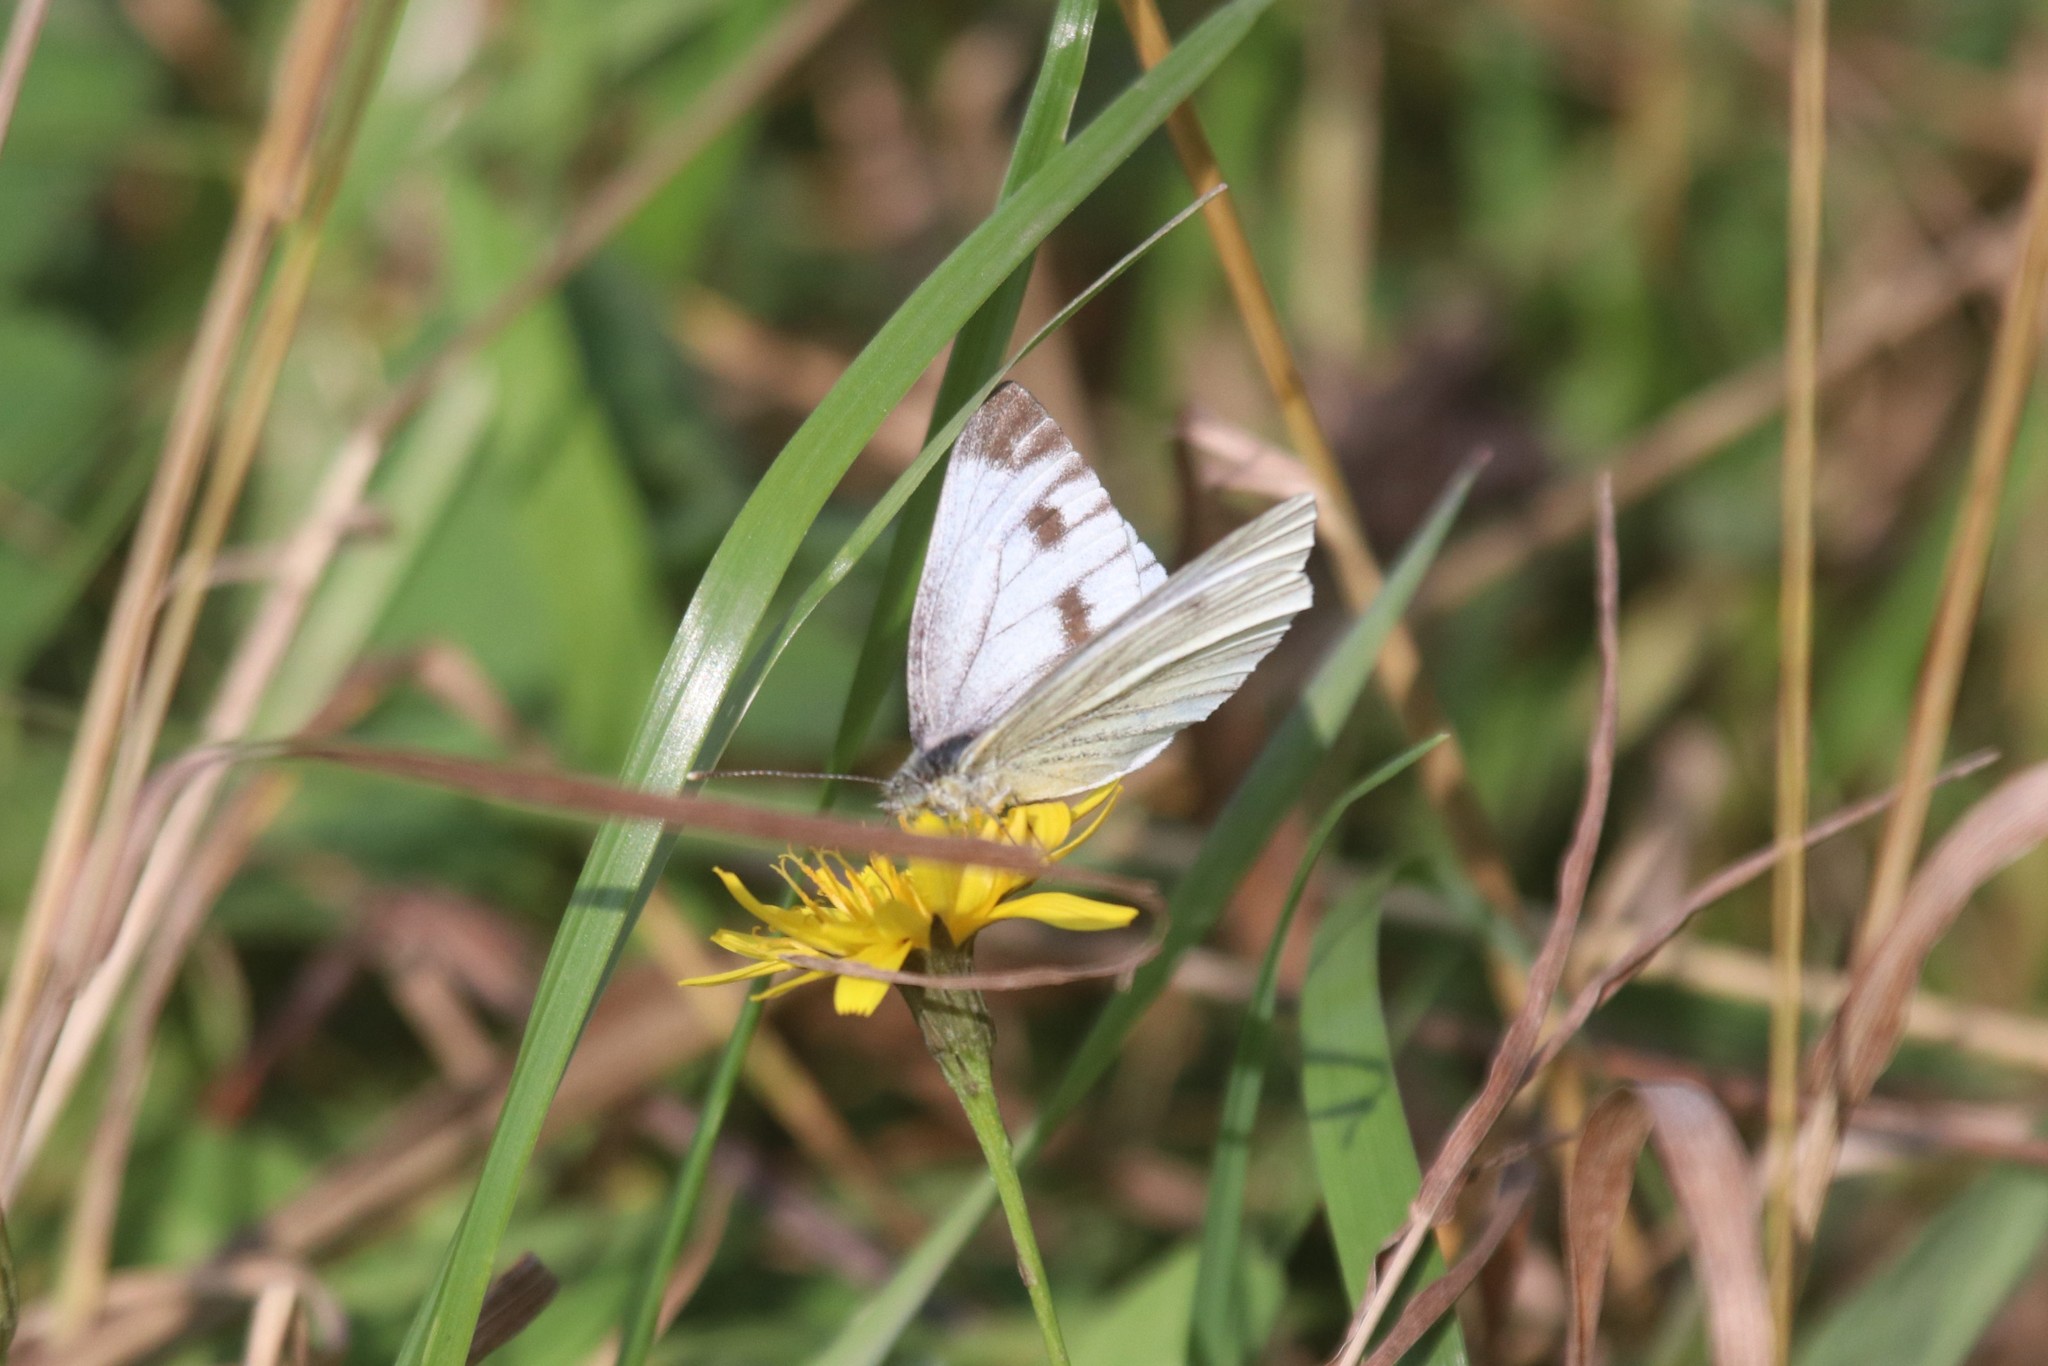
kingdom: Animalia
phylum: Arthropoda
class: Insecta
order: Lepidoptera
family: Pieridae
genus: Pieris
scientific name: Pieris napi
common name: Green-veined white
